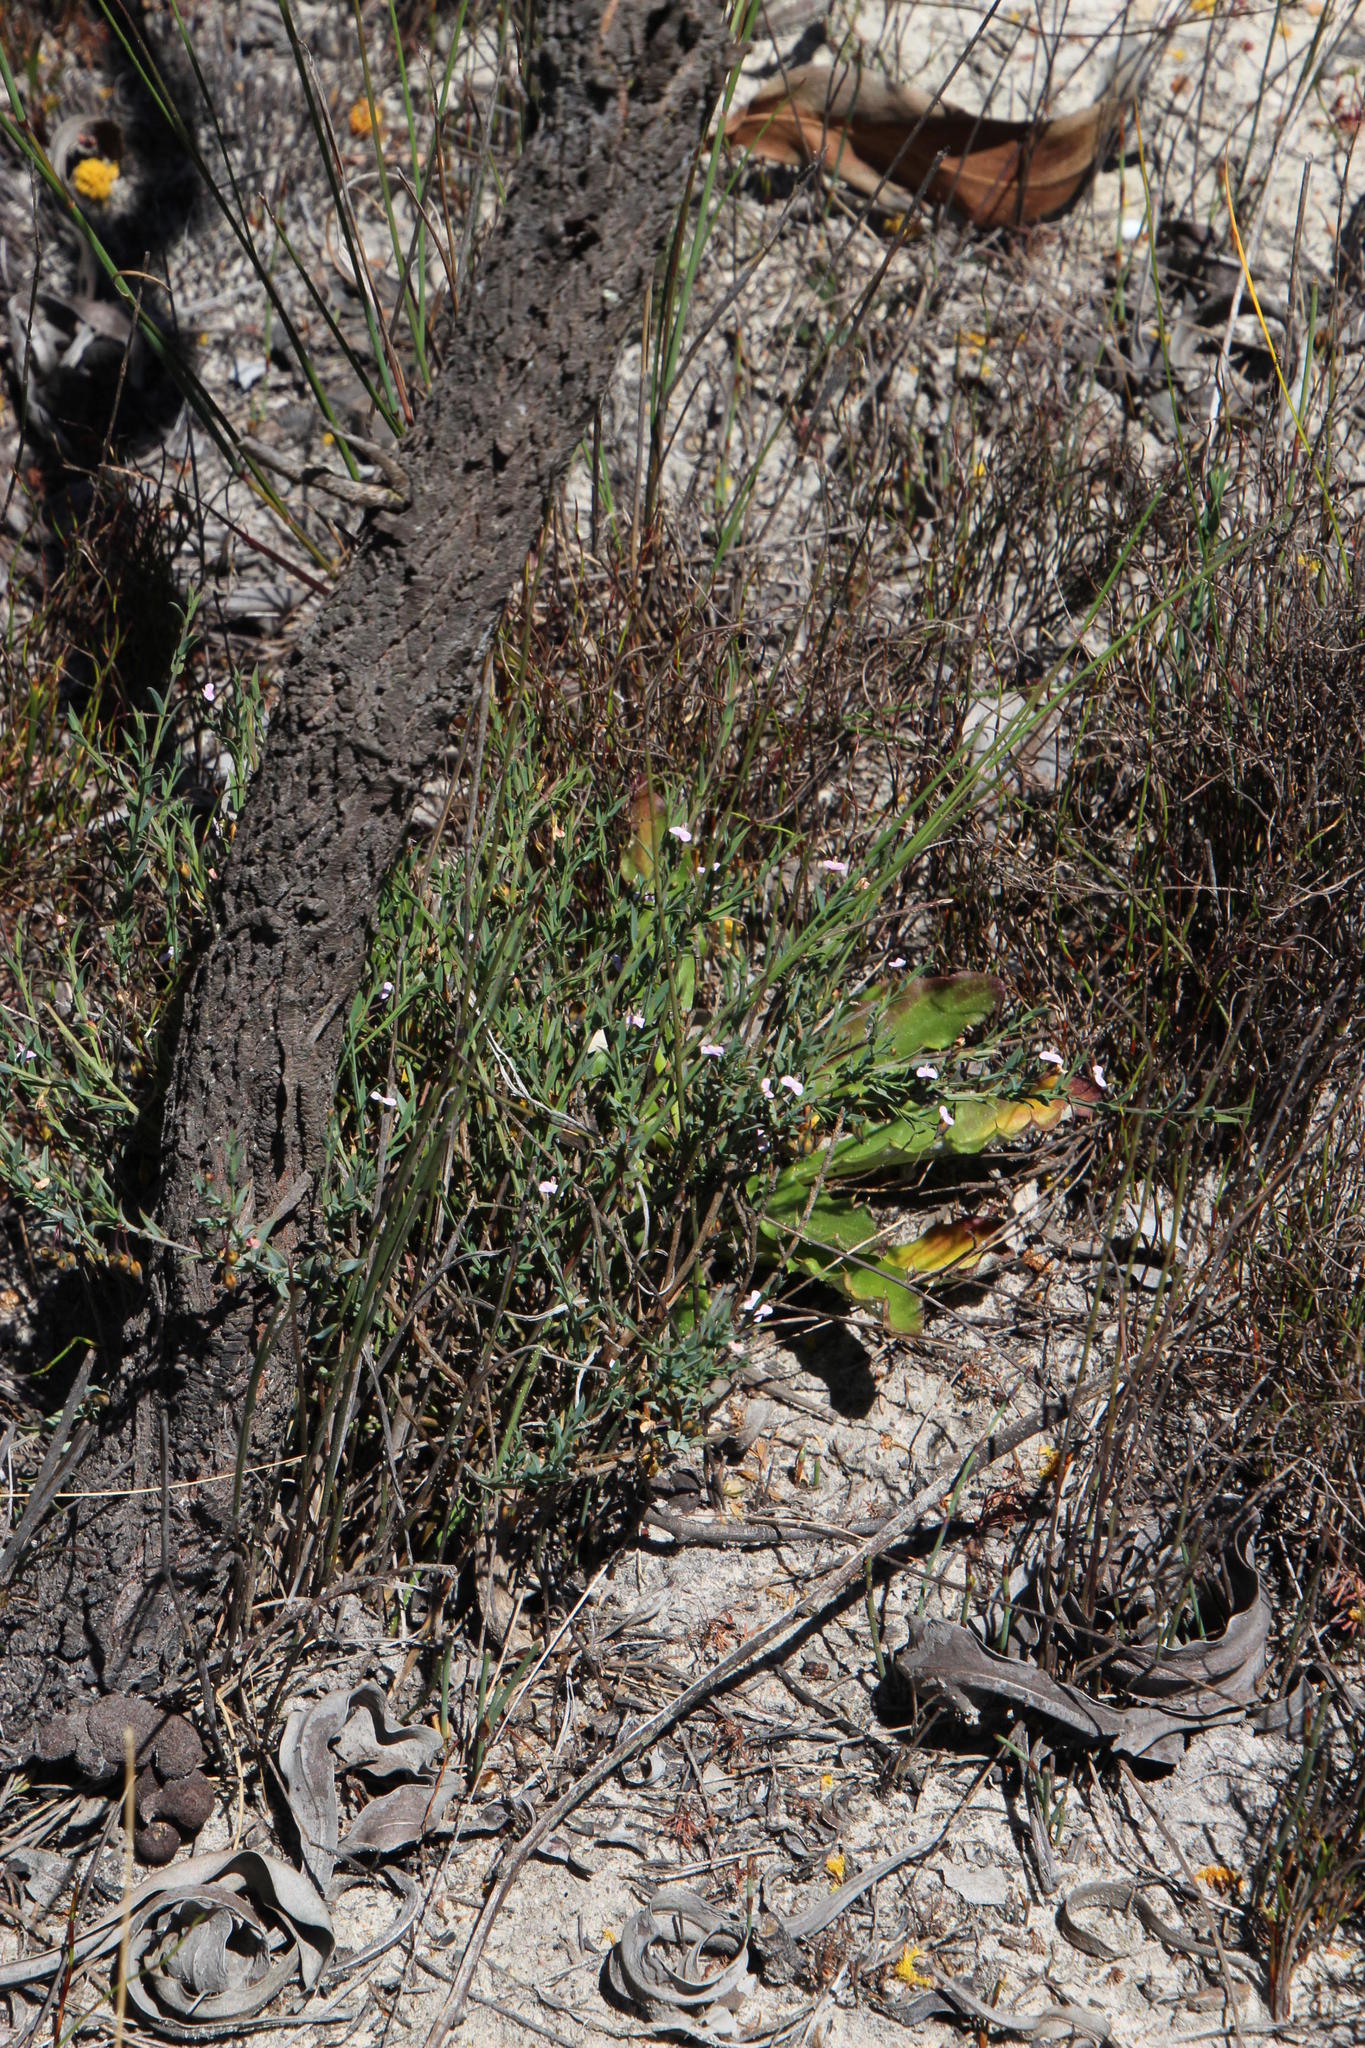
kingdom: Plantae
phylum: Tracheophyta
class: Magnoliopsida
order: Fabales
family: Polygalaceae
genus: Muraltia
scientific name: Muraltia trinervia
